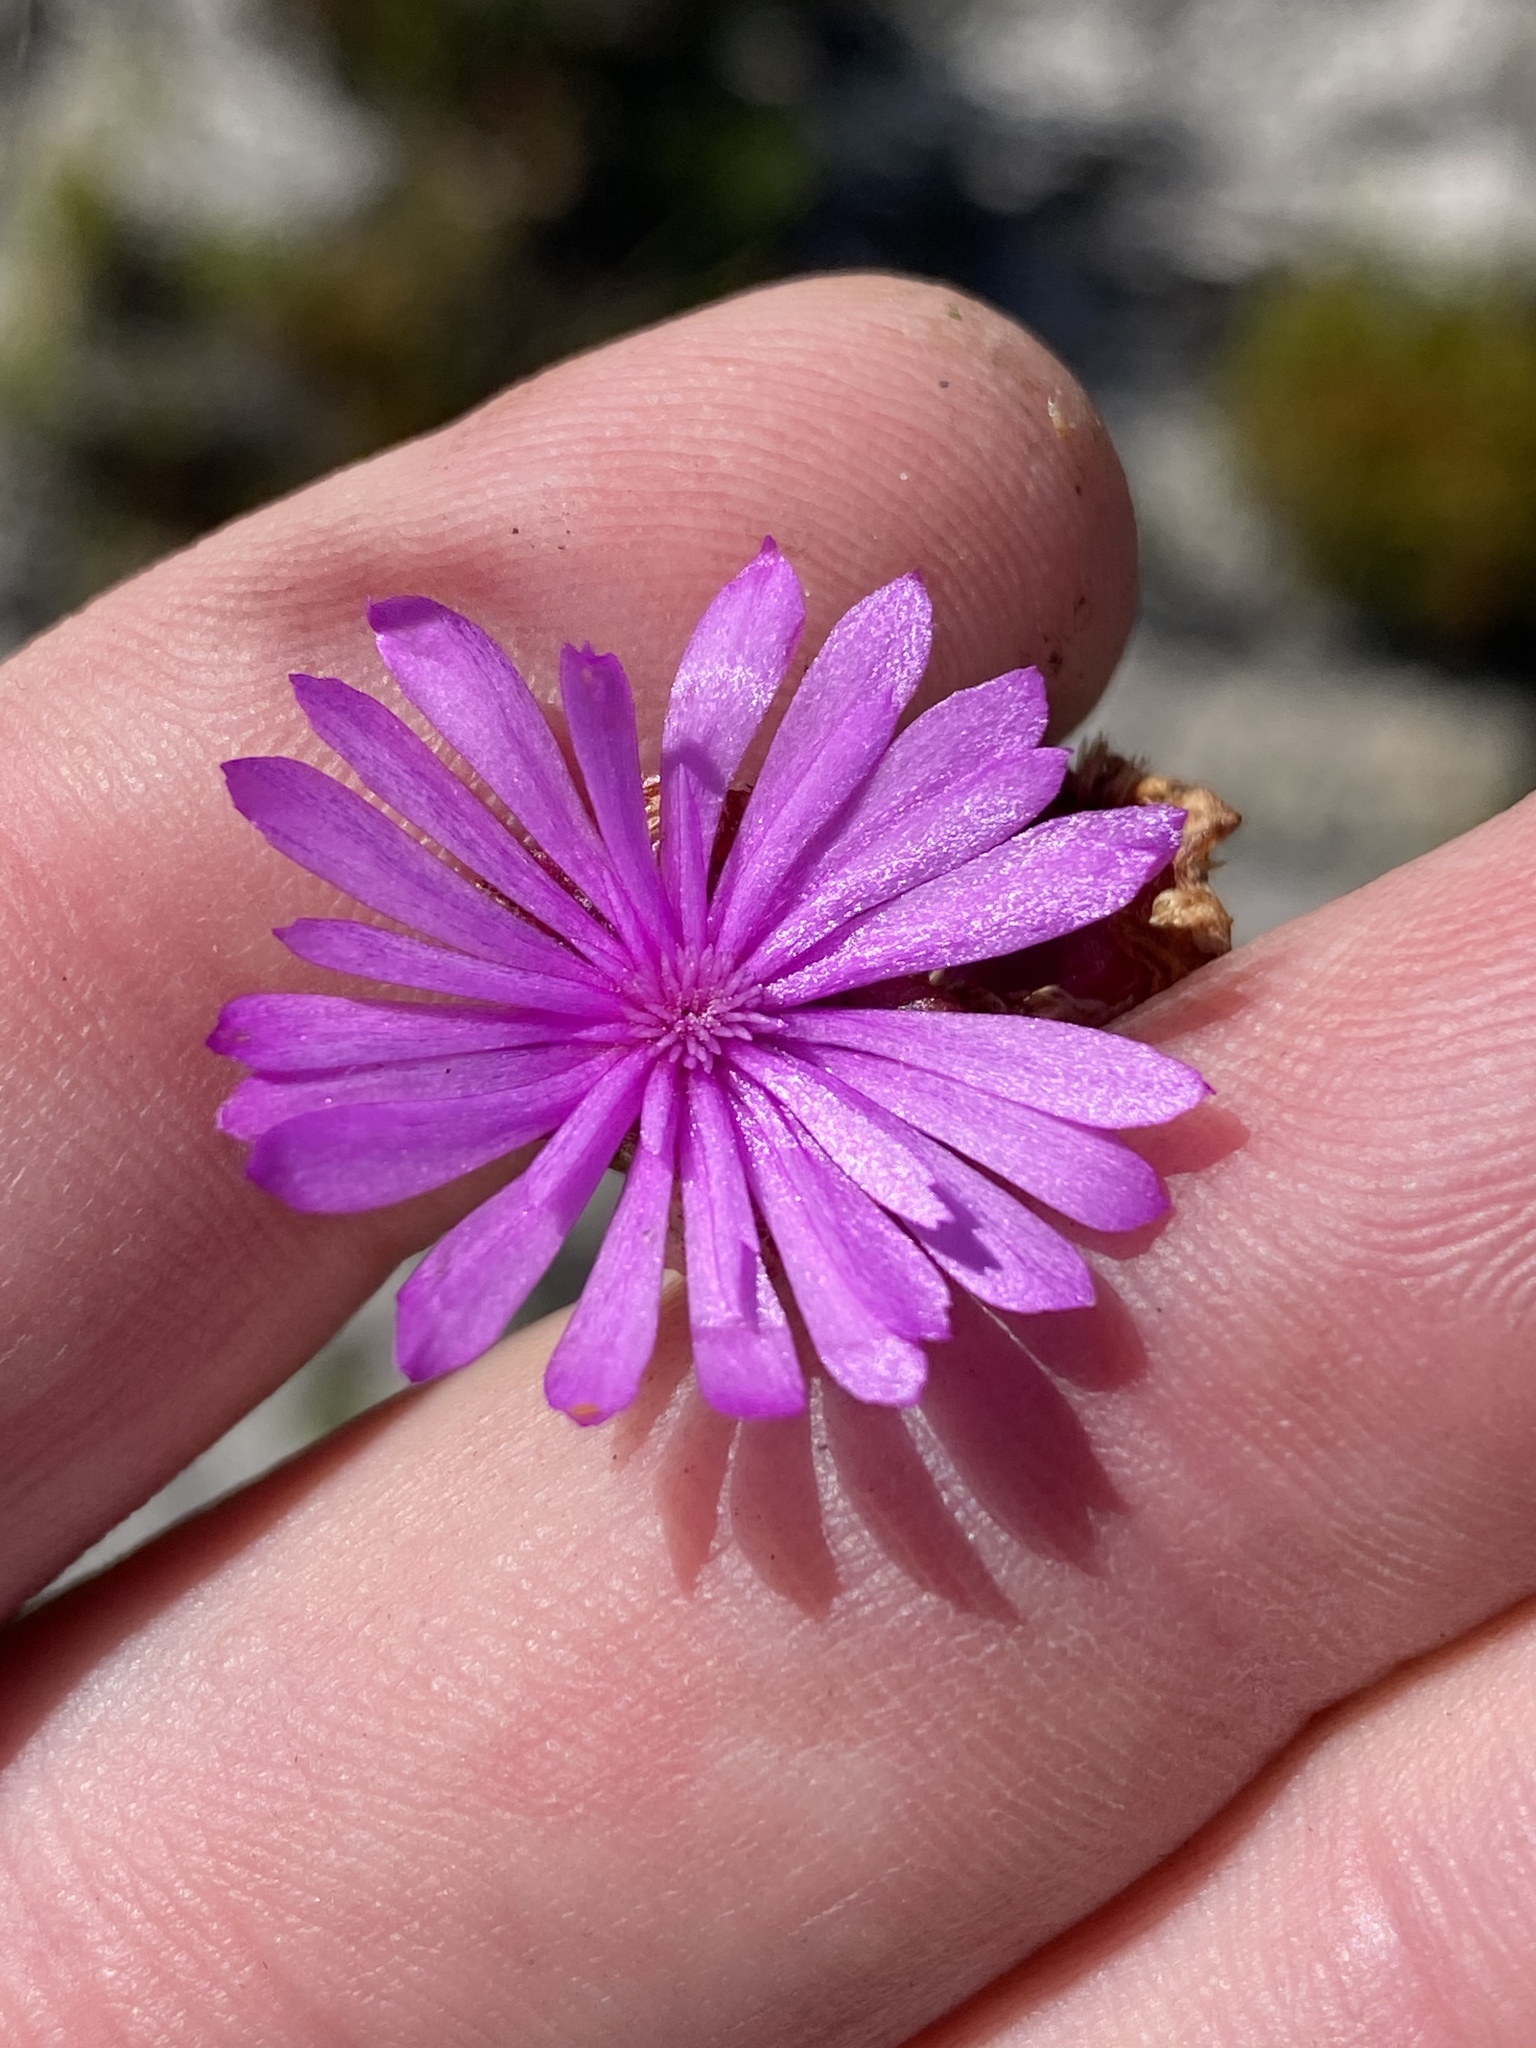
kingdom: Plantae
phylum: Tracheophyta
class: Magnoliopsida
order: Caryophyllales
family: Aizoaceae
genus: Erepsia
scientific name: Erepsia inclaudens
